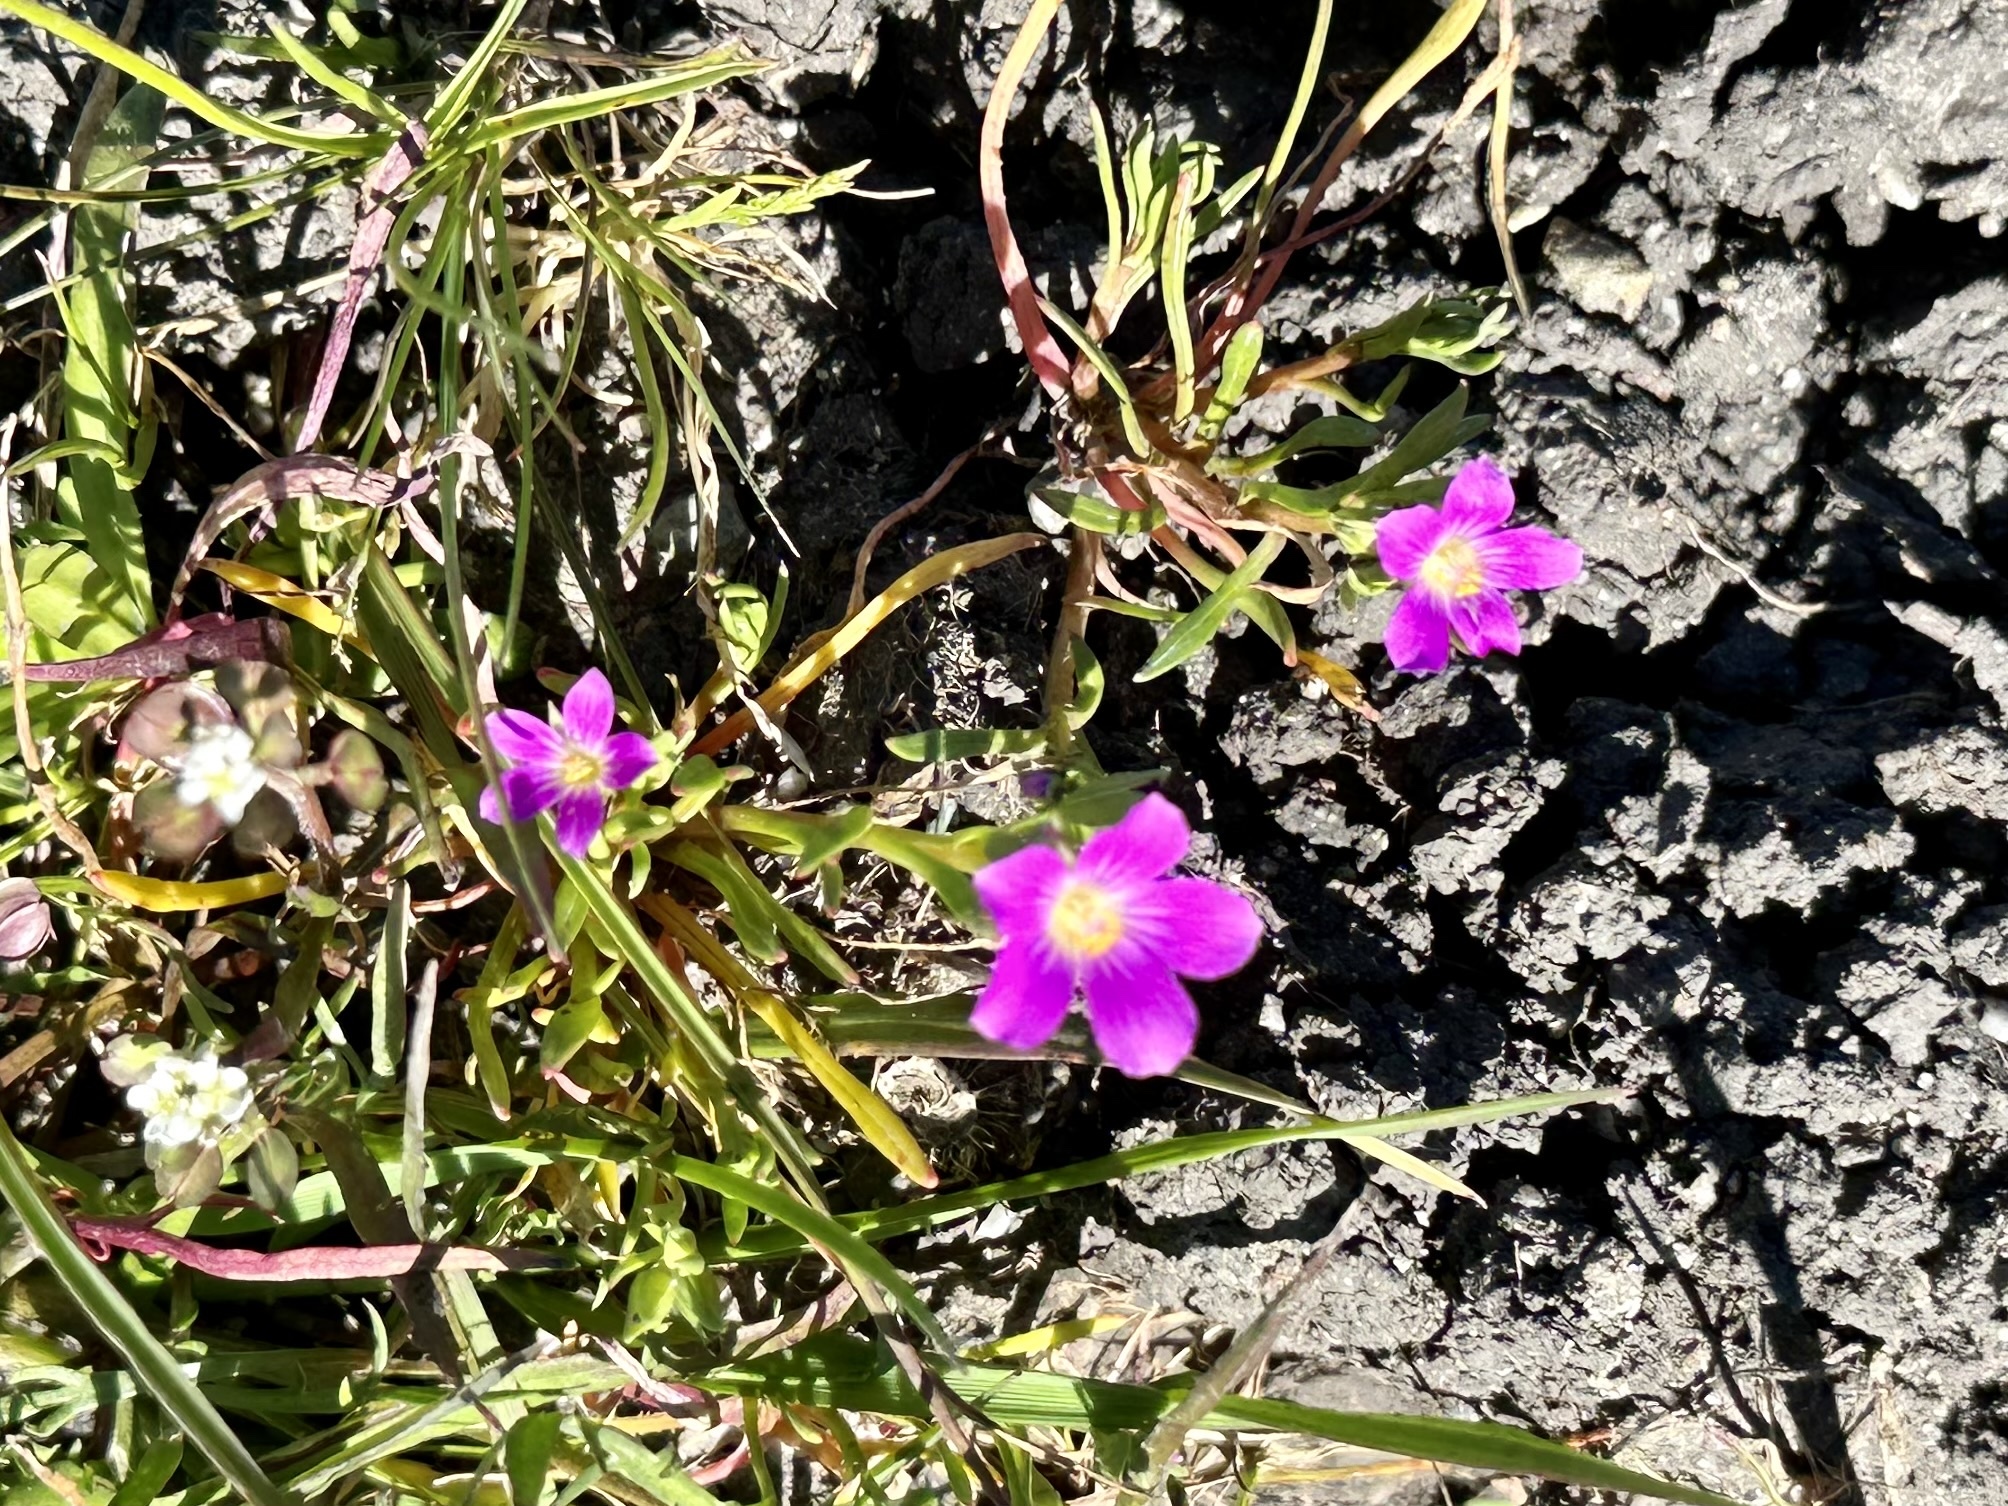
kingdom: Plantae
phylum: Tracheophyta
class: Magnoliopsida
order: Caryophyllales
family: Montiaceae
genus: Calandrinia
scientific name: Calandrinia menziesii
